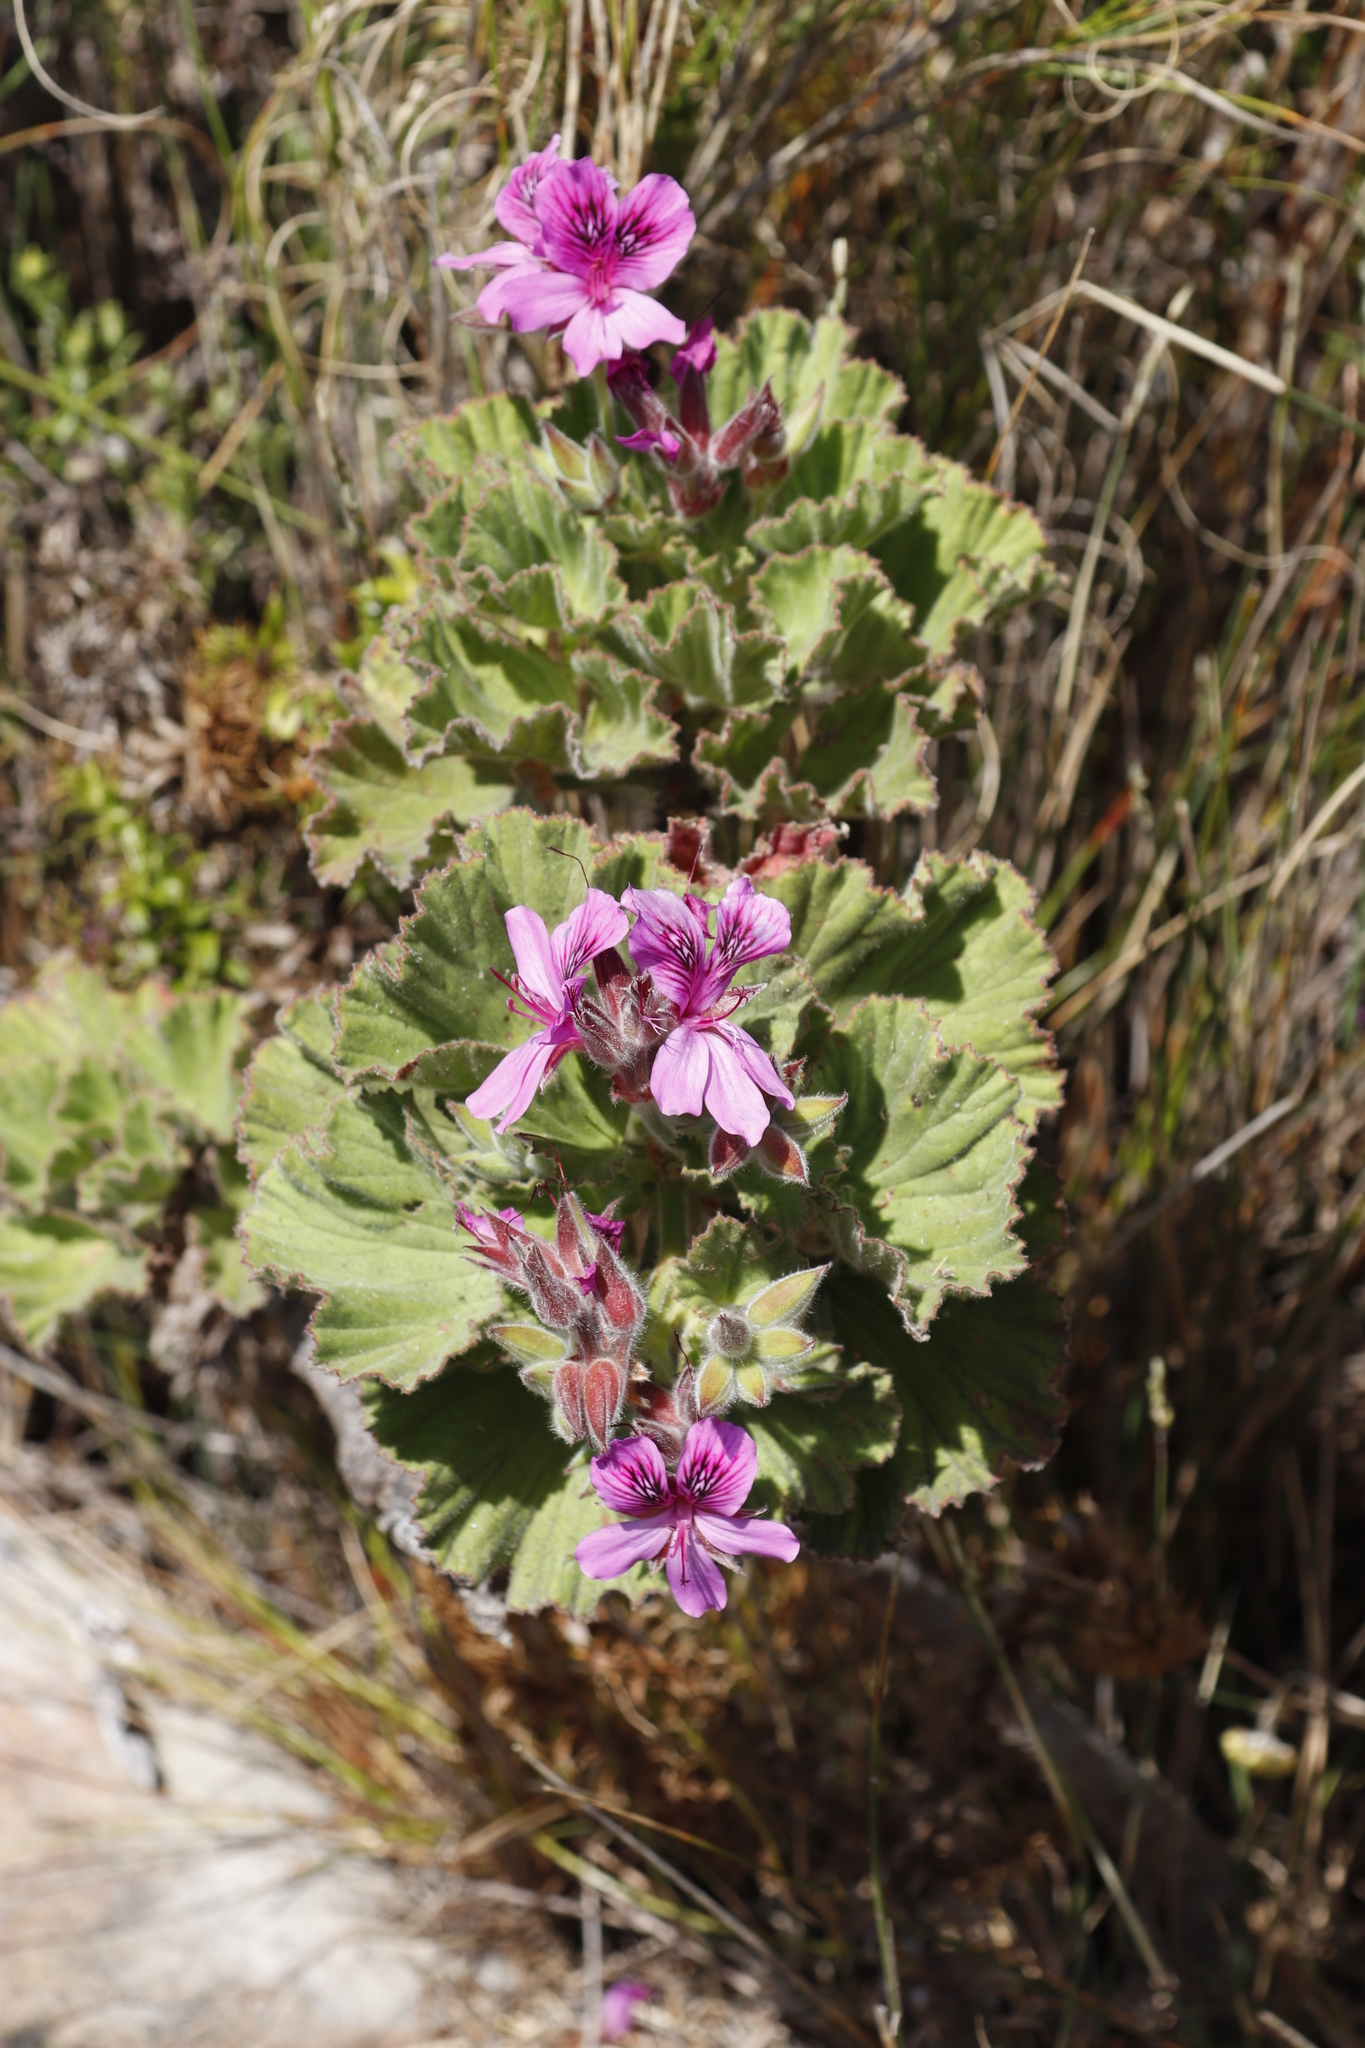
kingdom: Plantae
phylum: Tracheophyta
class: Magnoliopsida
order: Geraniales
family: Geraniaceae
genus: Pelargonium
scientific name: Pelargonium cucullatum
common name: Tree pelargonium
